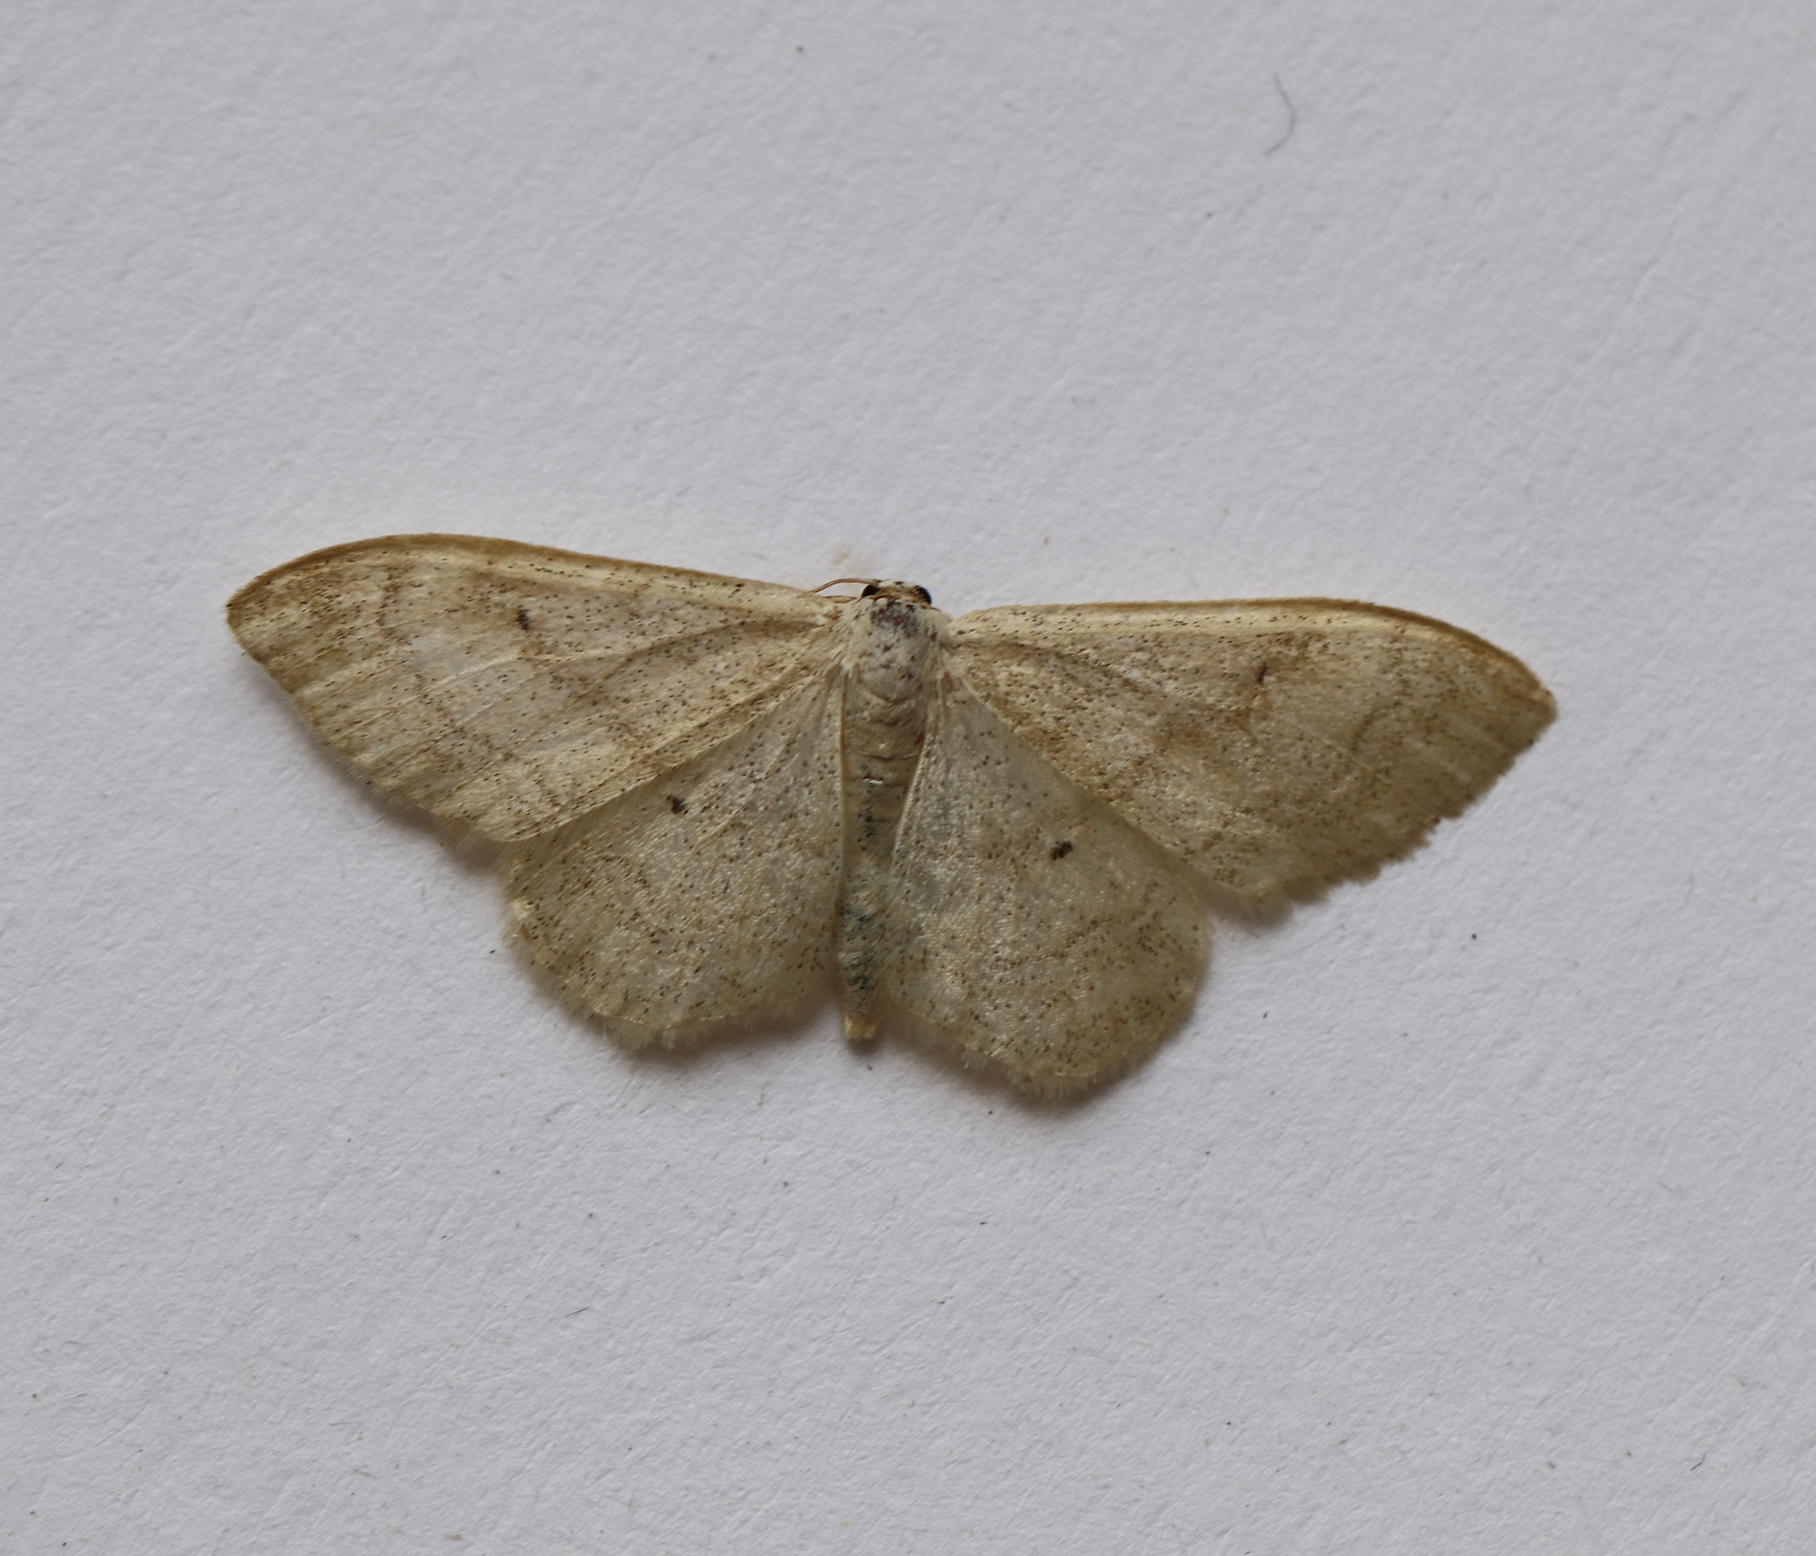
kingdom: Animalia
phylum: Arthropoda
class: Insecta
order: Lepidoptera
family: Geometridae
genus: Idaea
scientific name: Idaea maritimaria
